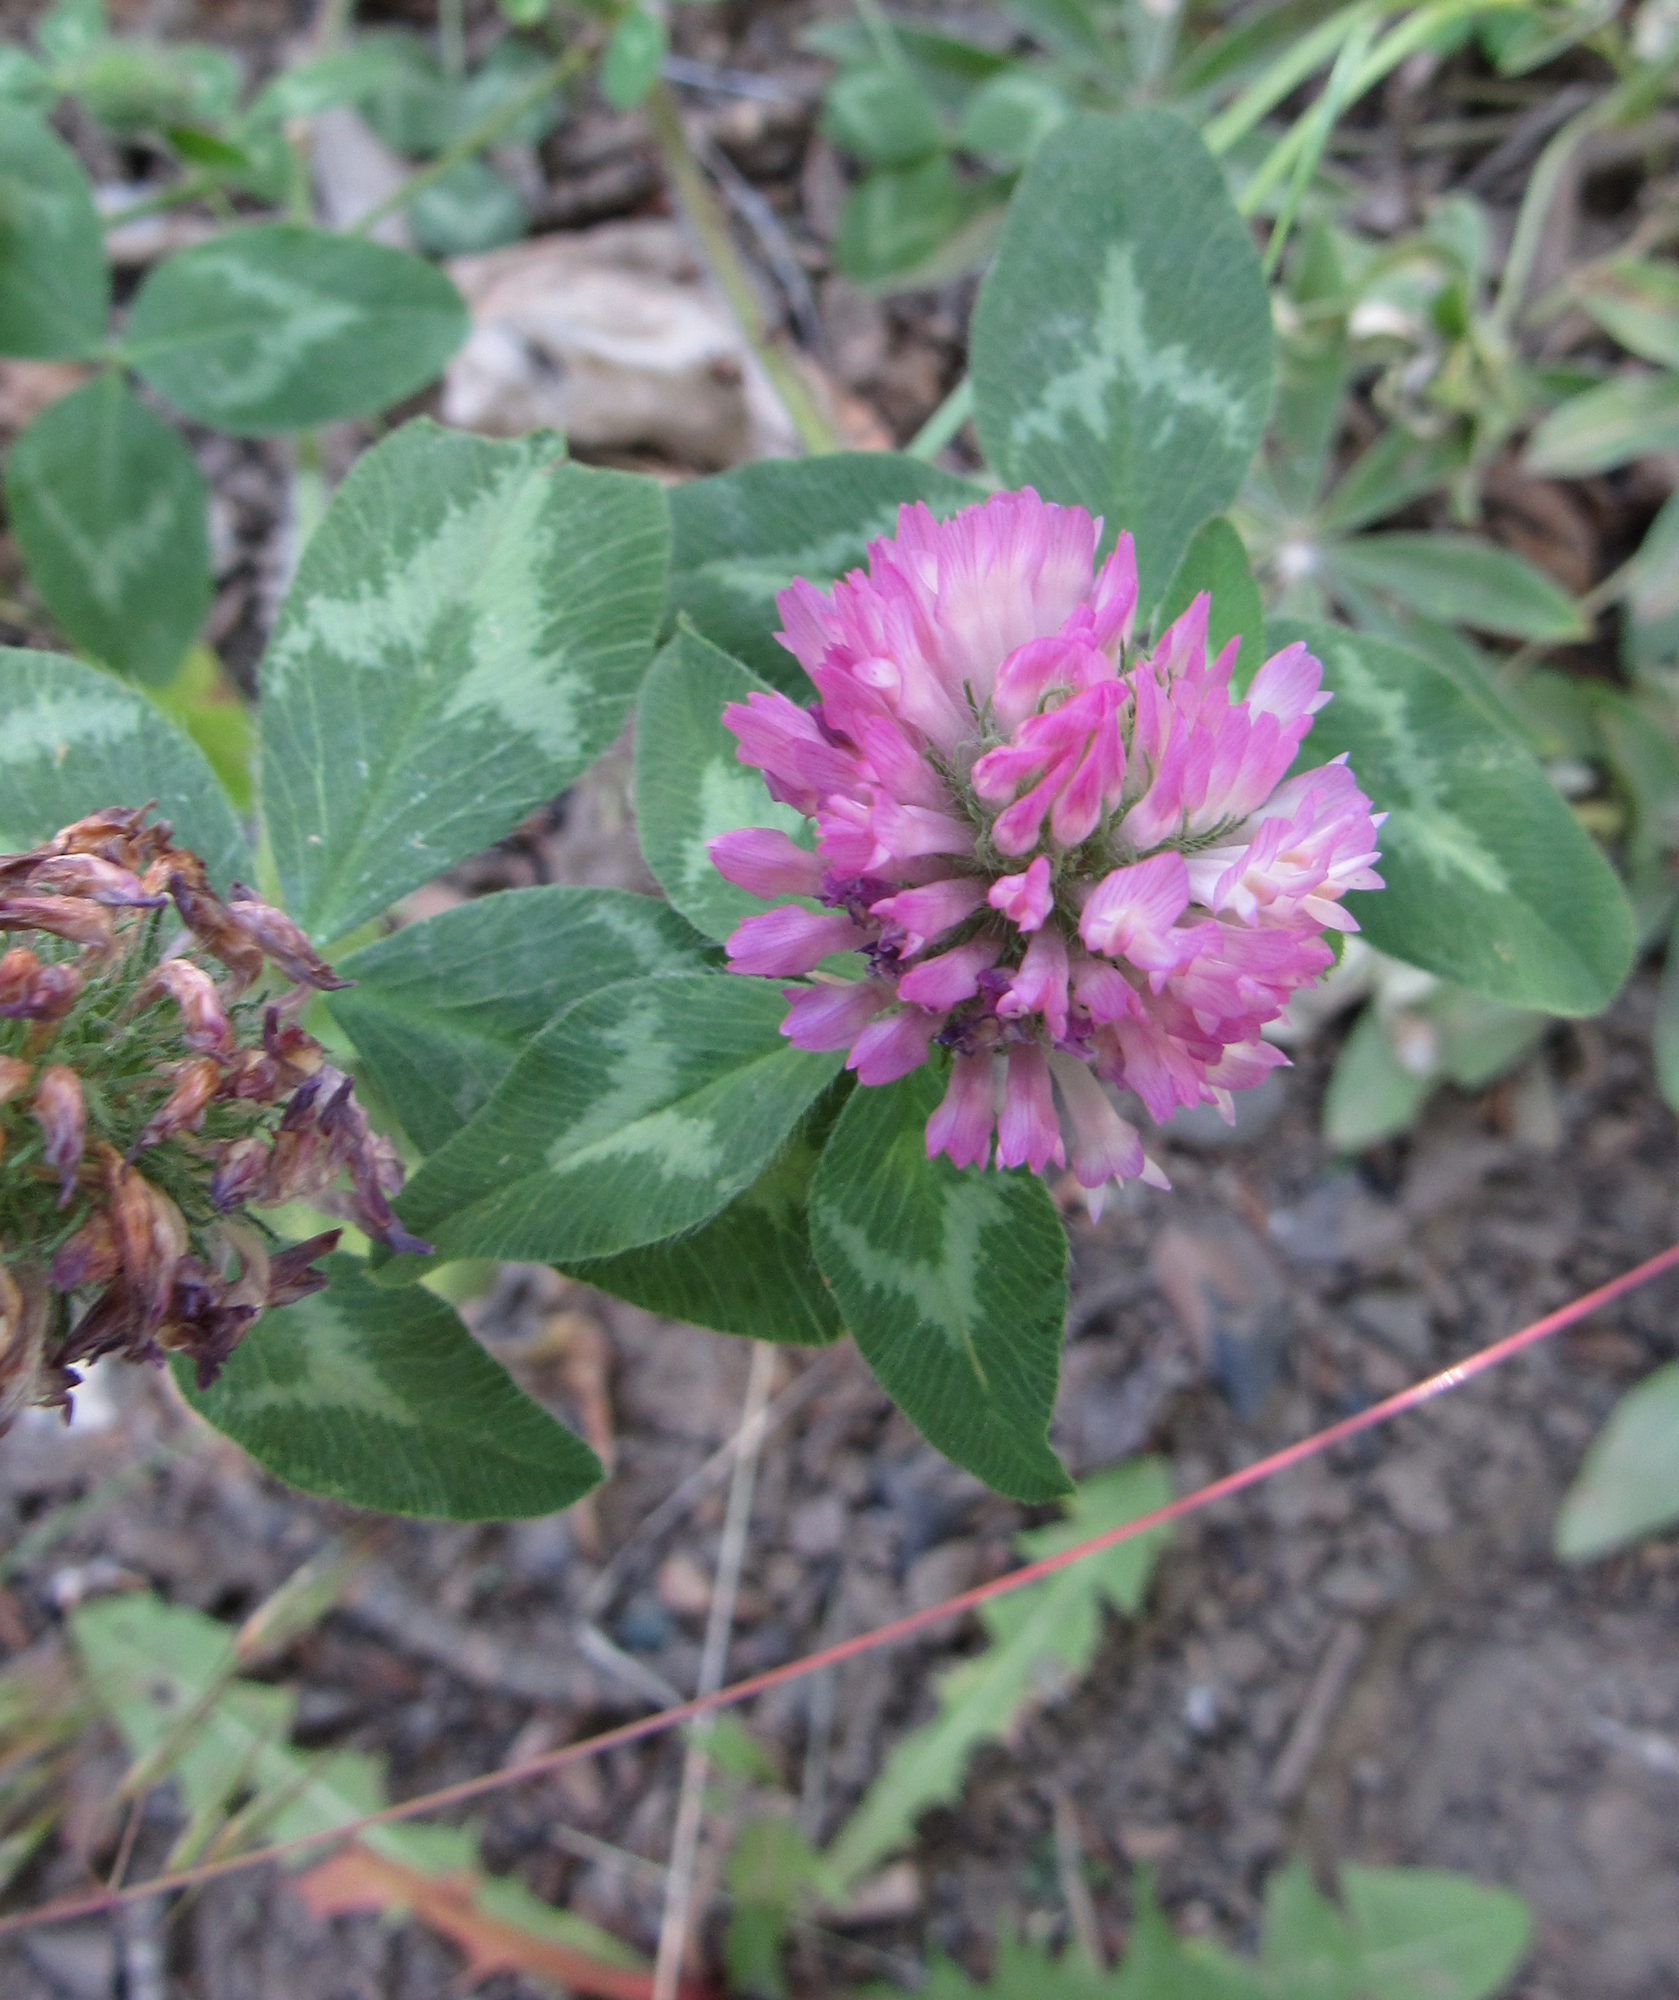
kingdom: Plantae
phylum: Tracheophyta
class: Magnoliopsida
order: Fabales
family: Fabaceae
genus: Trifolium
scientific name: Trifolium pratense
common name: Red clover
